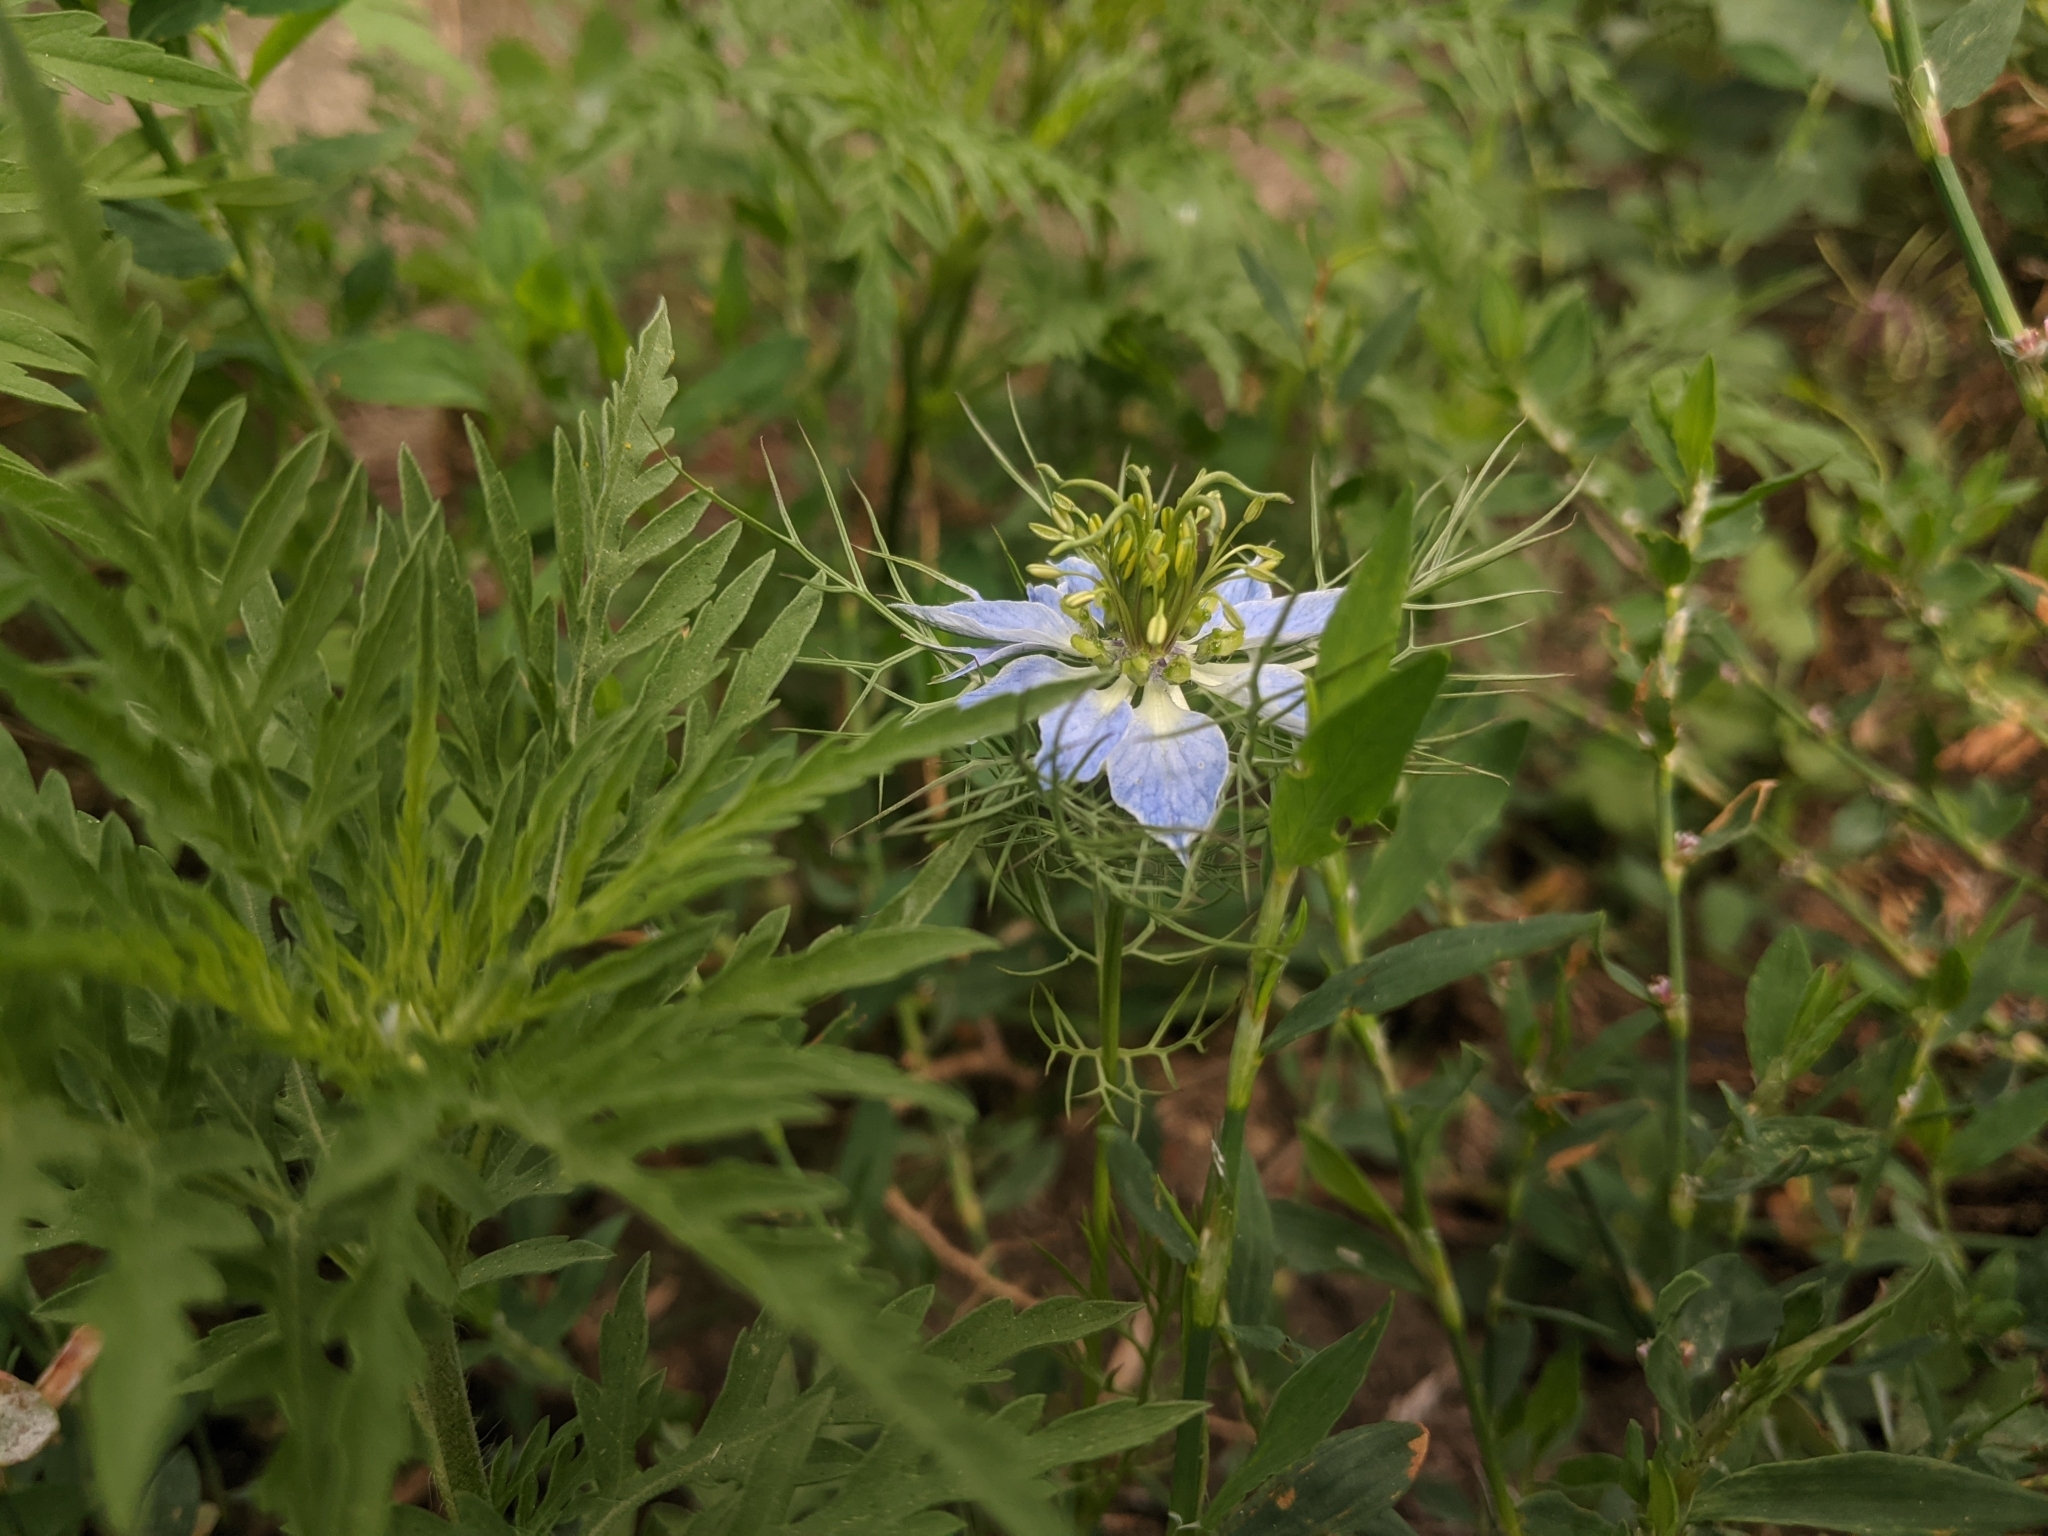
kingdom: Plantae
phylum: Tracheophyta
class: Magnoliopsida
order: Ranunculales
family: Ranunculaceae
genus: Nigella
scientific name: Nigella damascena
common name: Love-in-a-mist
